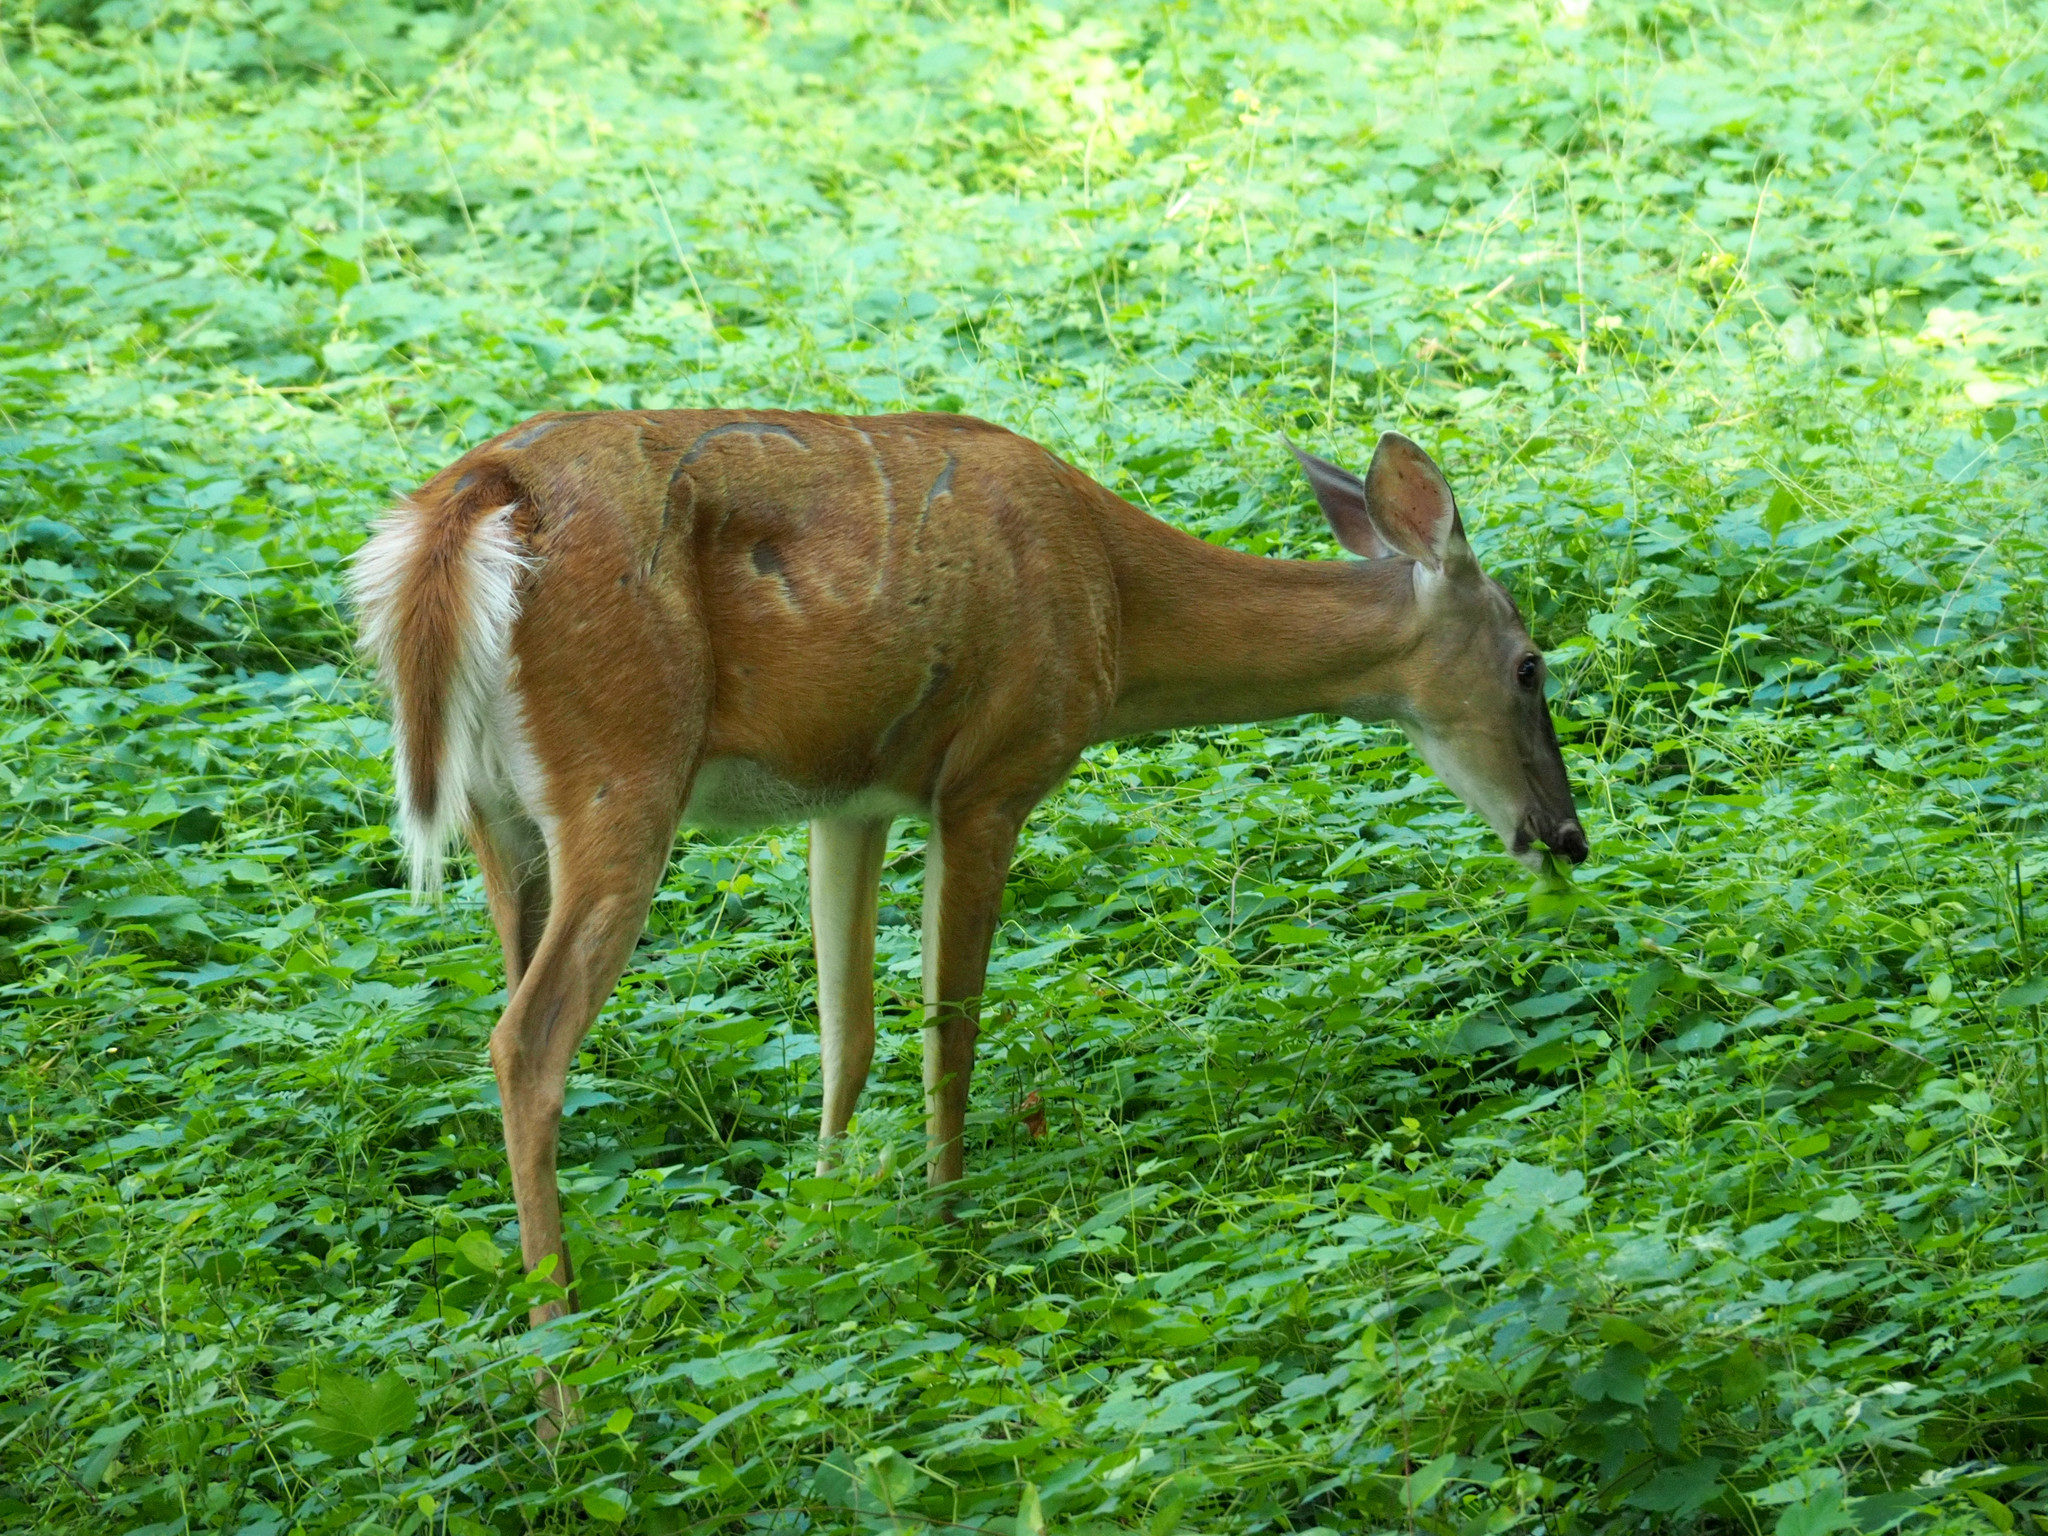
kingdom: Animalia
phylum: Chordata
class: Mammalia
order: Artiodactyla
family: Cervidae
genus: Odocoileus
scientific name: Odocoileus virginianus
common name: White-tailed deer
